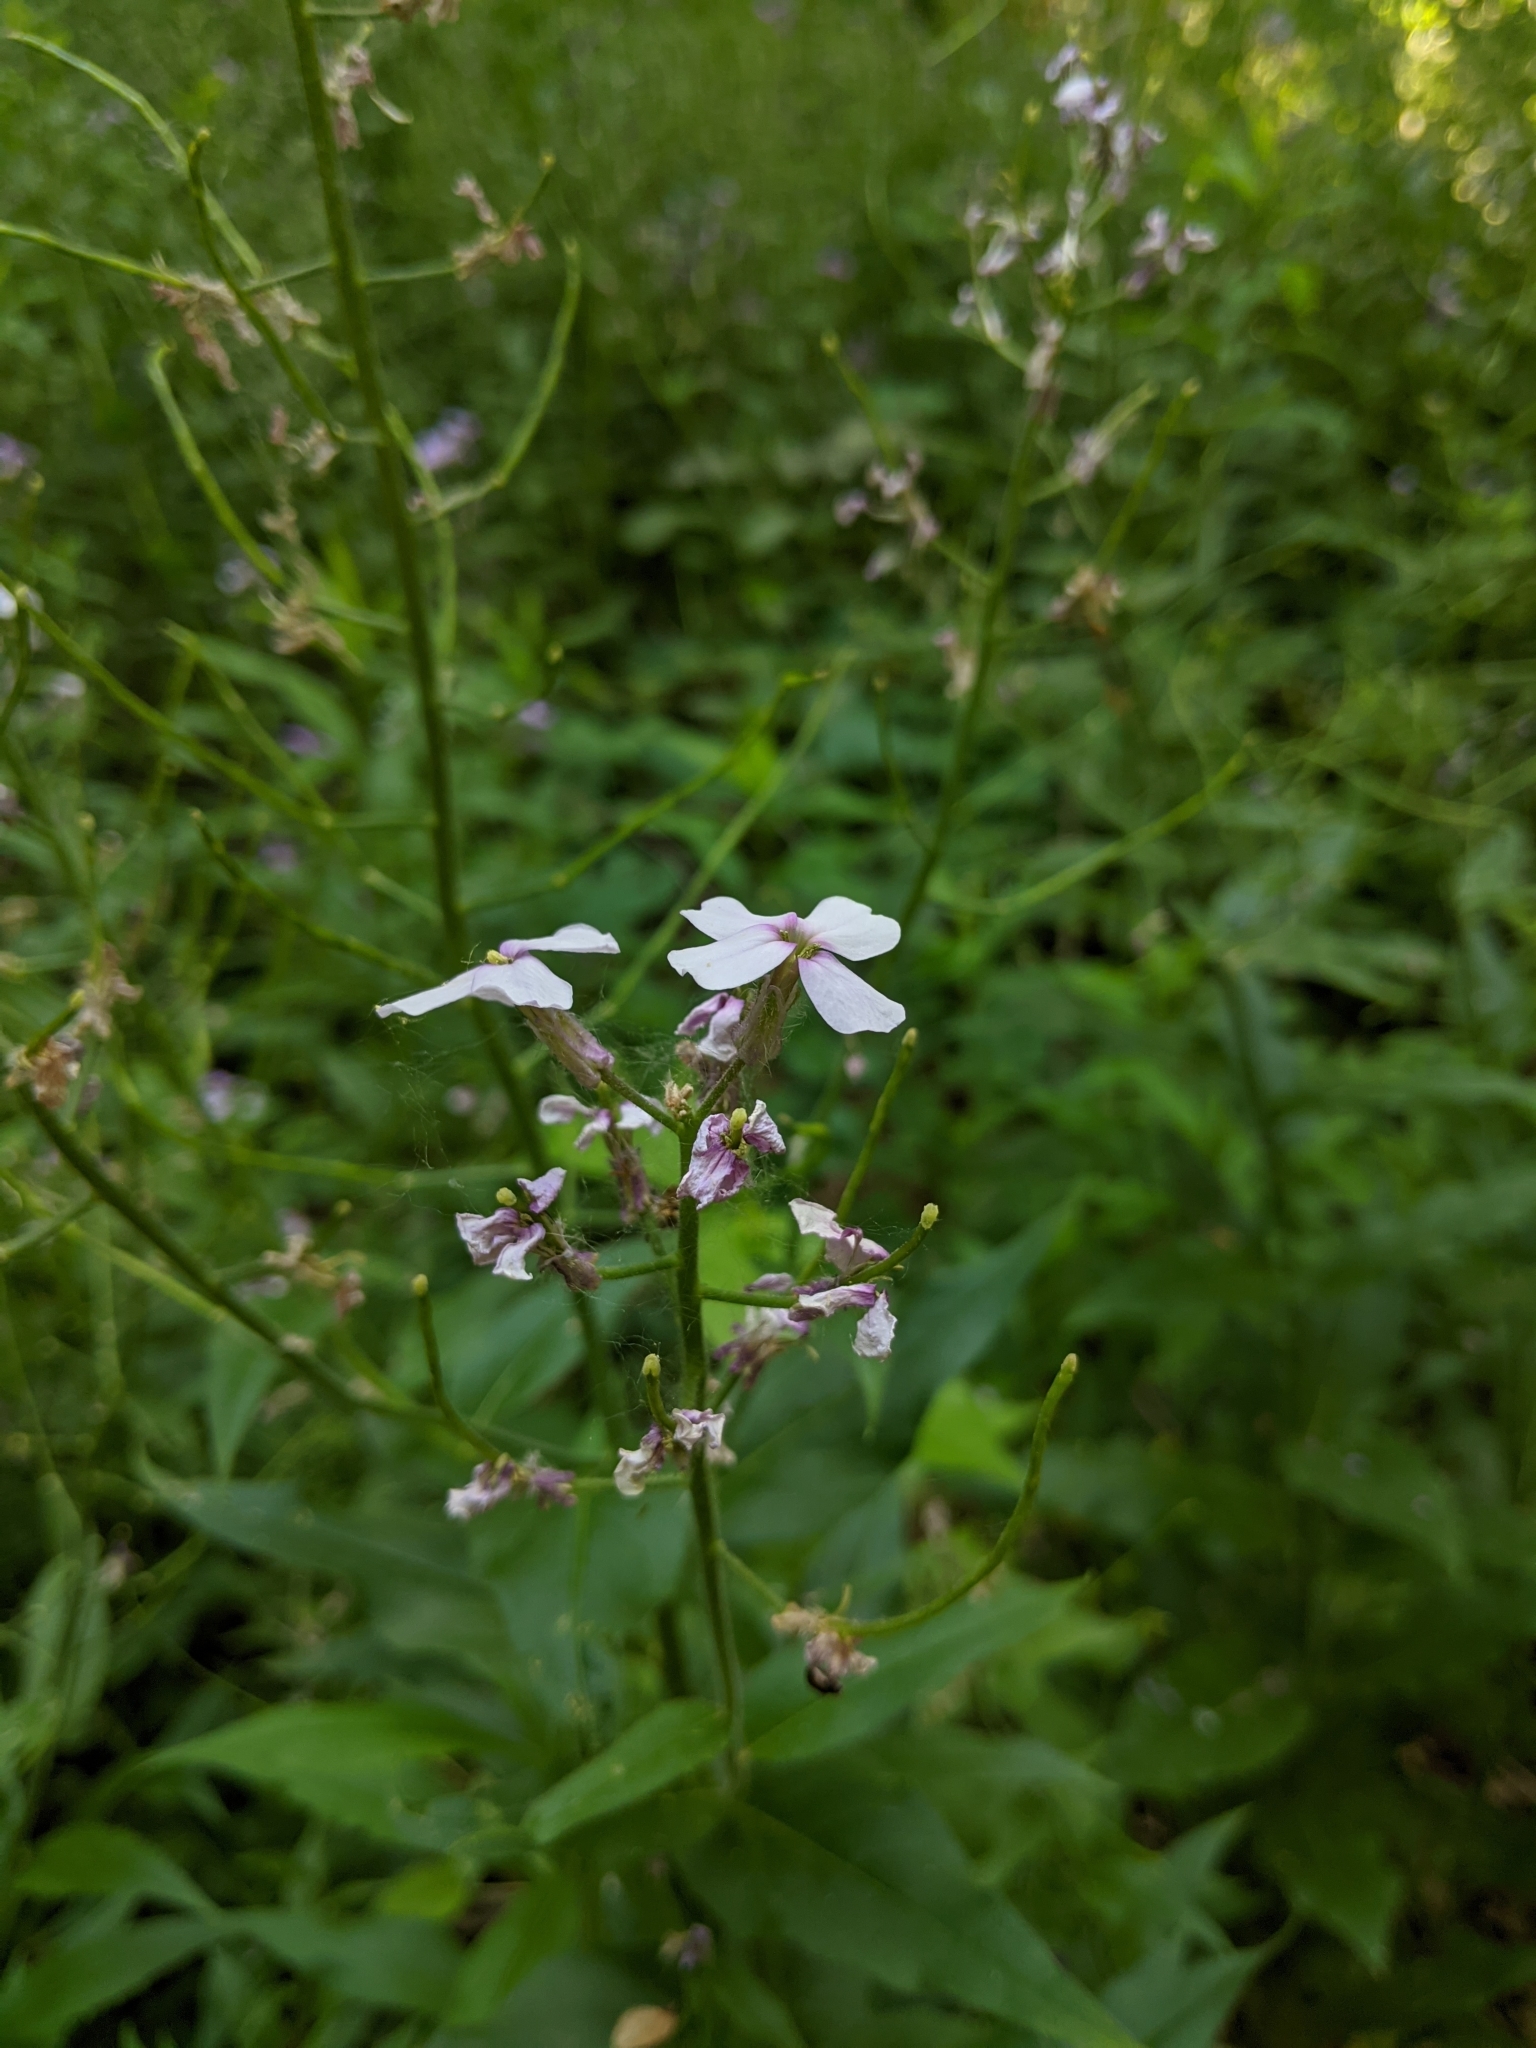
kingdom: Plantae
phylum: Tracheophyta
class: Magnoliopsida
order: Brassicales
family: Brassicaceae
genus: Hesperis
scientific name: Hesperis matronalis
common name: Dame's-violet
